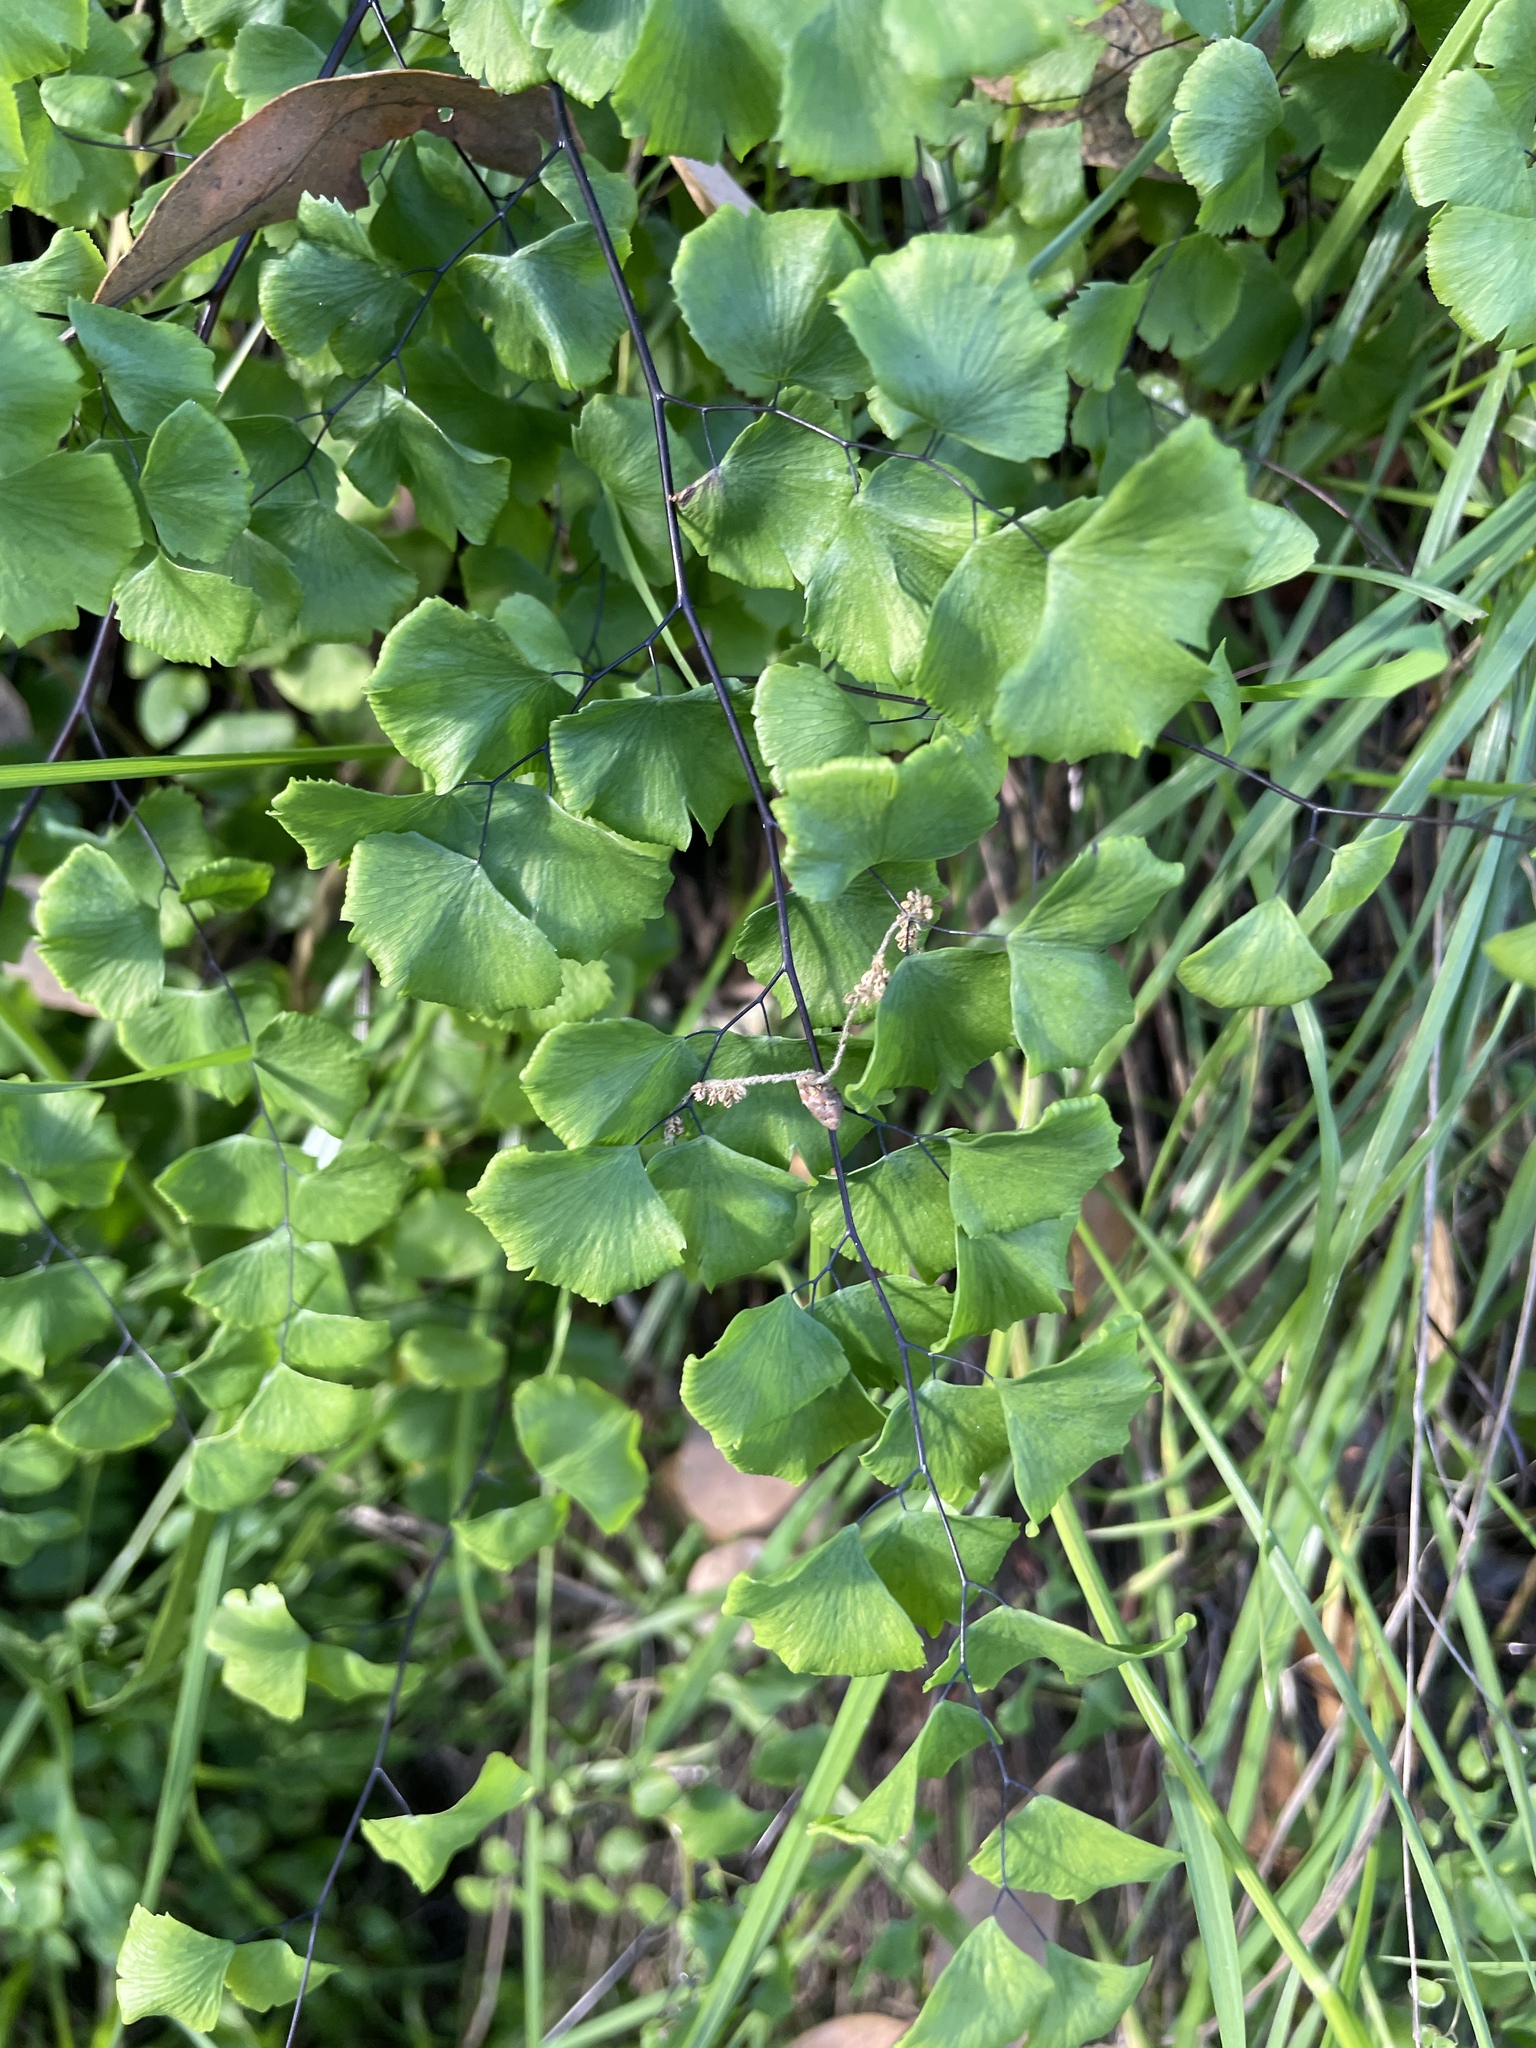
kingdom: Plantae
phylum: Tracheophyta
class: Polypodiopsida
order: Polypodiales
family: Pteridaceae
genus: Adiantum
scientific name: Adiantum jordanii
